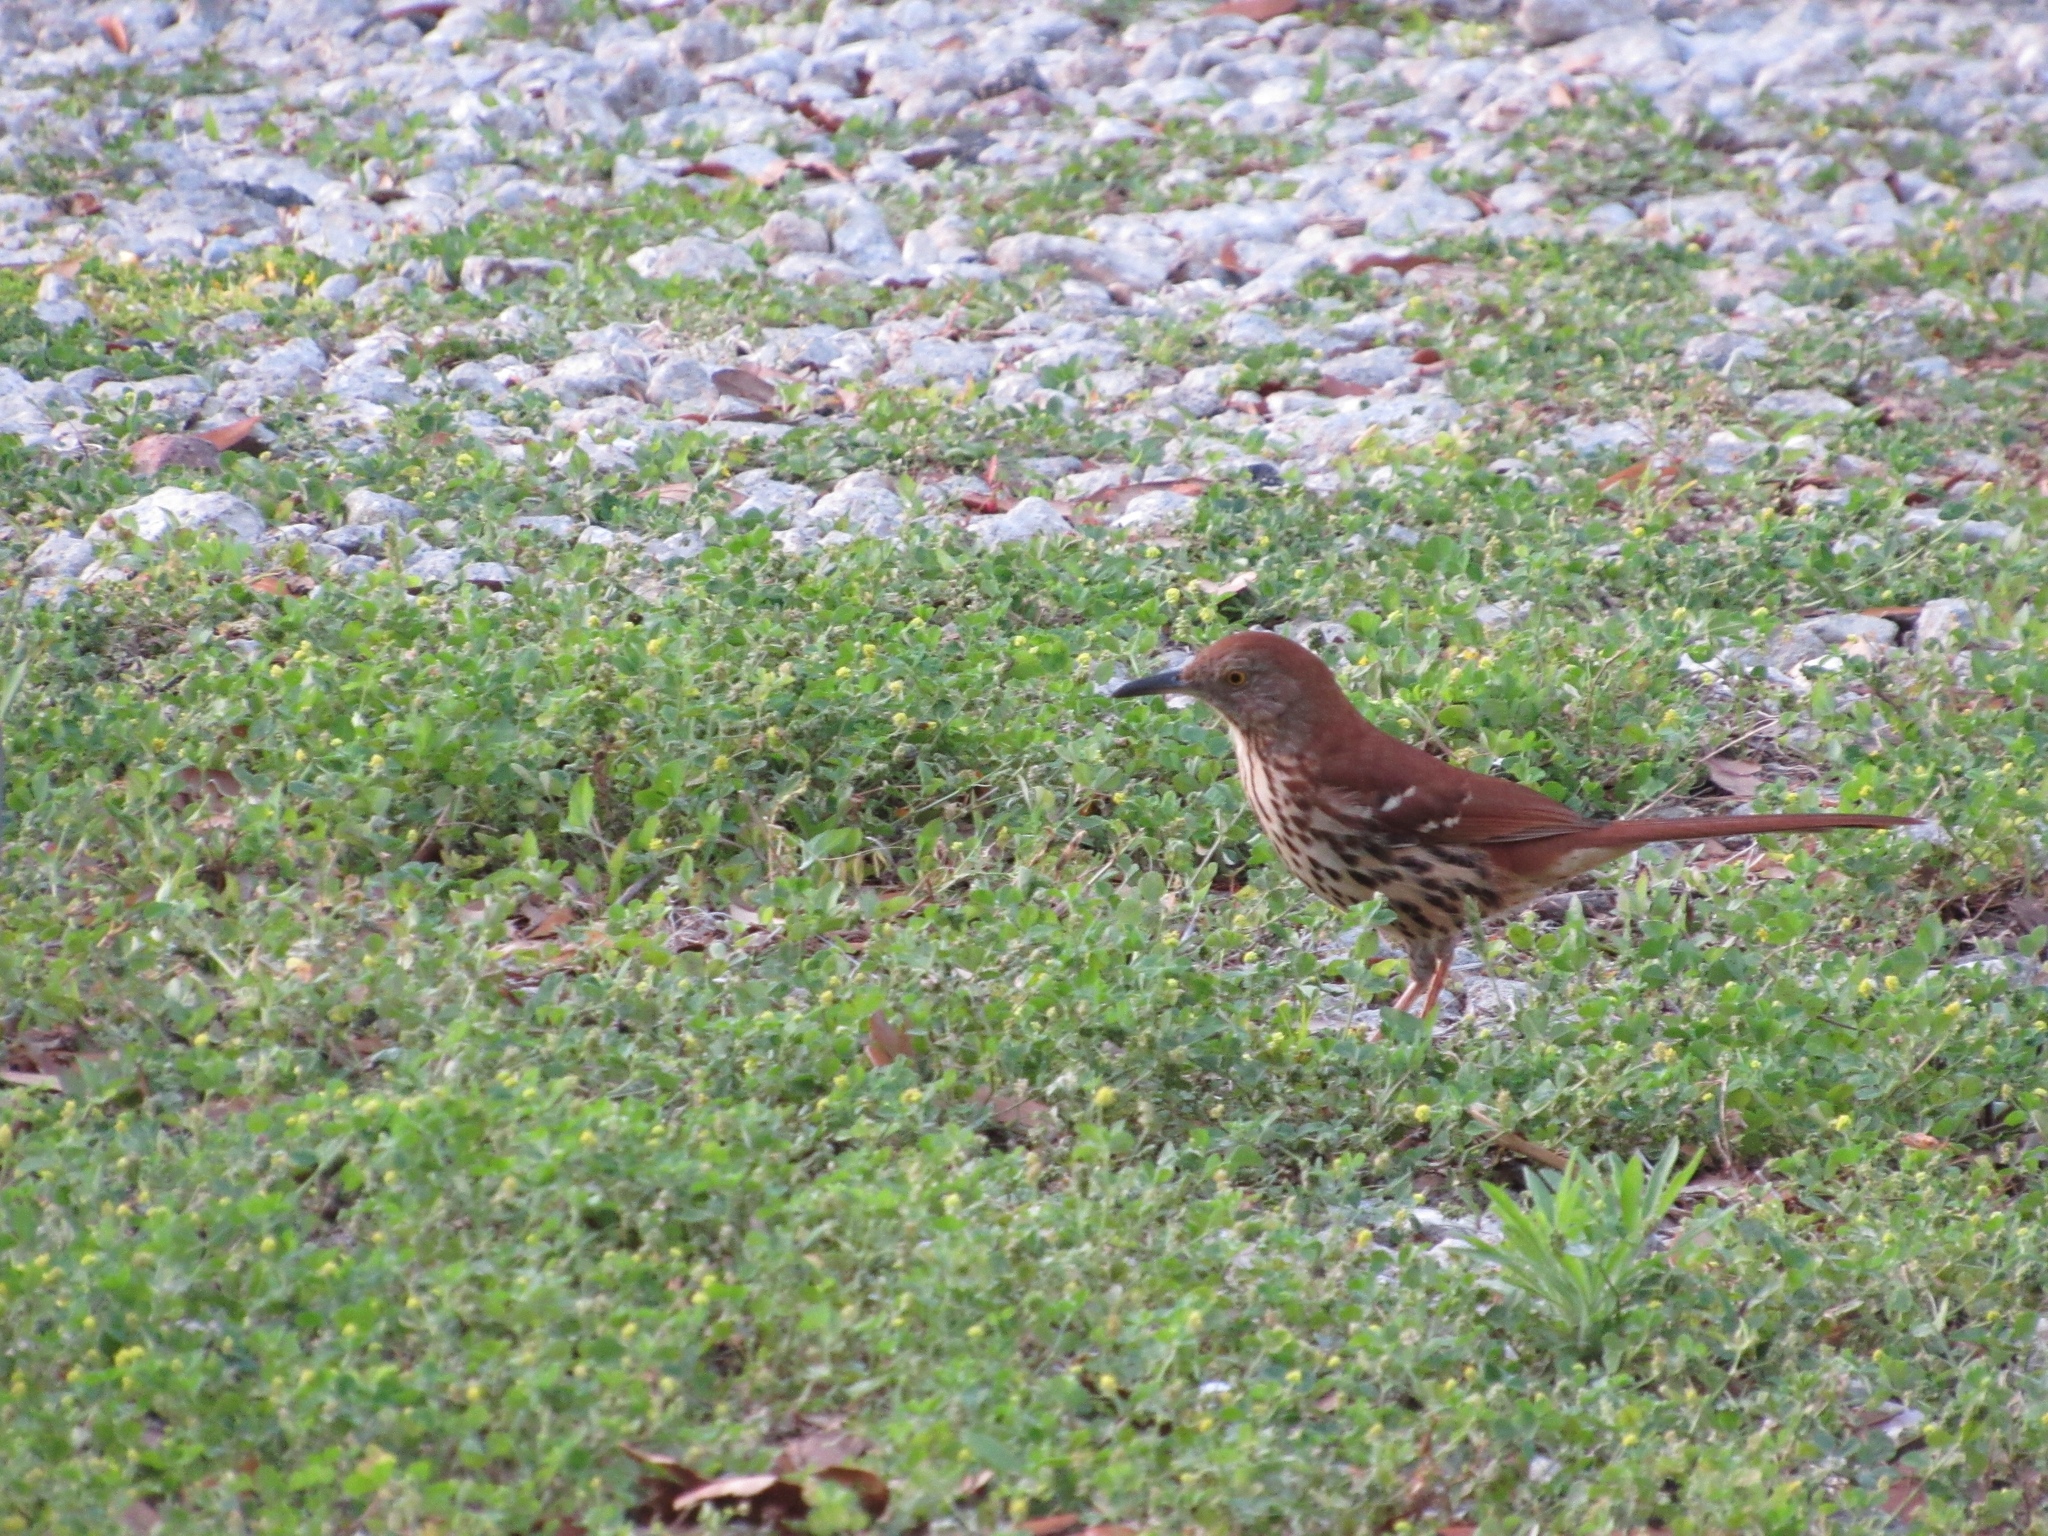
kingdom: Animalia
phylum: Chordata
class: Aves
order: Passeriformes
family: Mimidae
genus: Toxostoma
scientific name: Toxostoma rufum
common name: Brown thrasher
